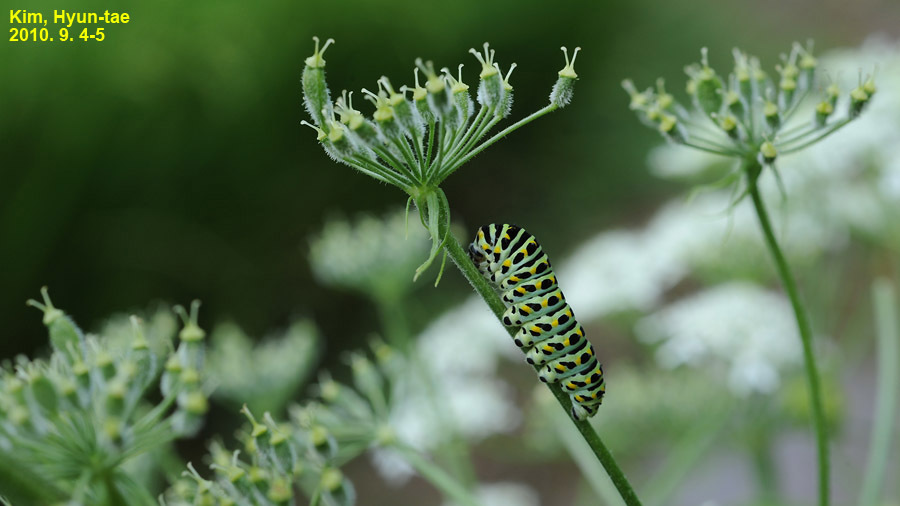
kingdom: Animalia
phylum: Arthropoda
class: Insecta
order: Lepidoptera
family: Papilionidae
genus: Papilio
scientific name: Papilio machaon
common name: Swallowtail
